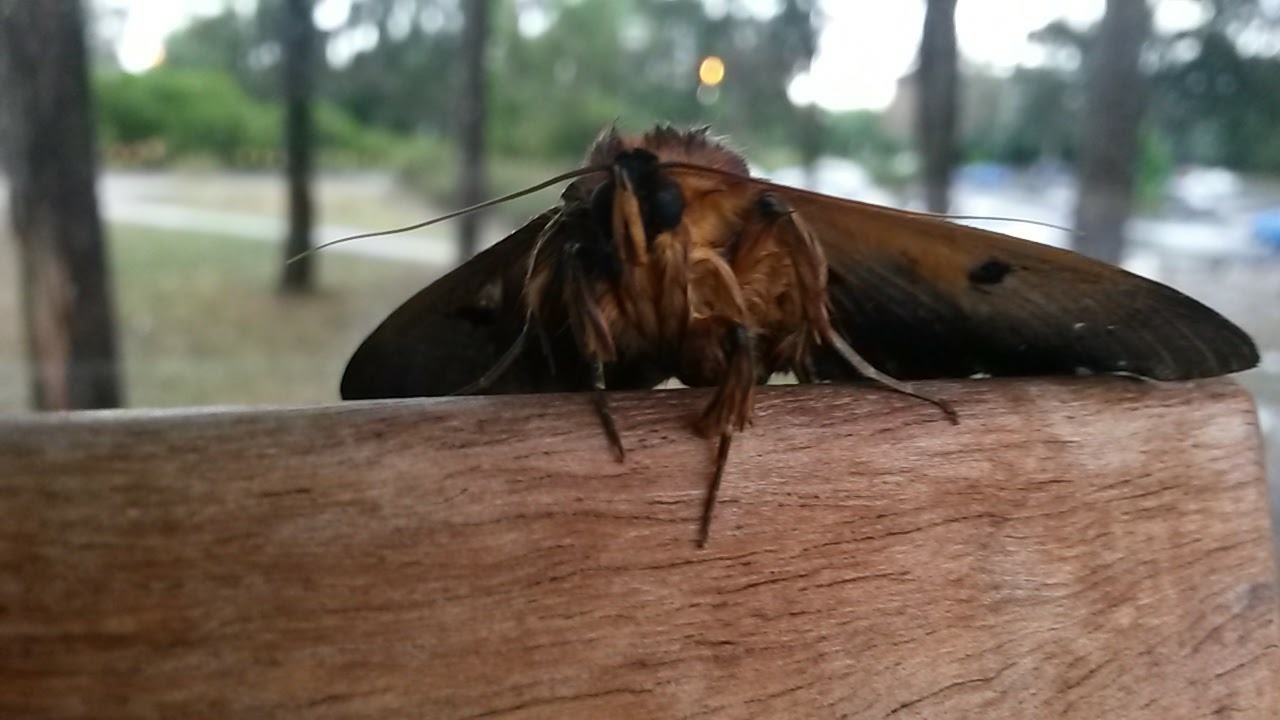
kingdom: Animalia
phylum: Arthropoda
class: Insecta
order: Lepidoptera
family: Erebidae
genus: Dasypodia
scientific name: Dasypodia selenophora
